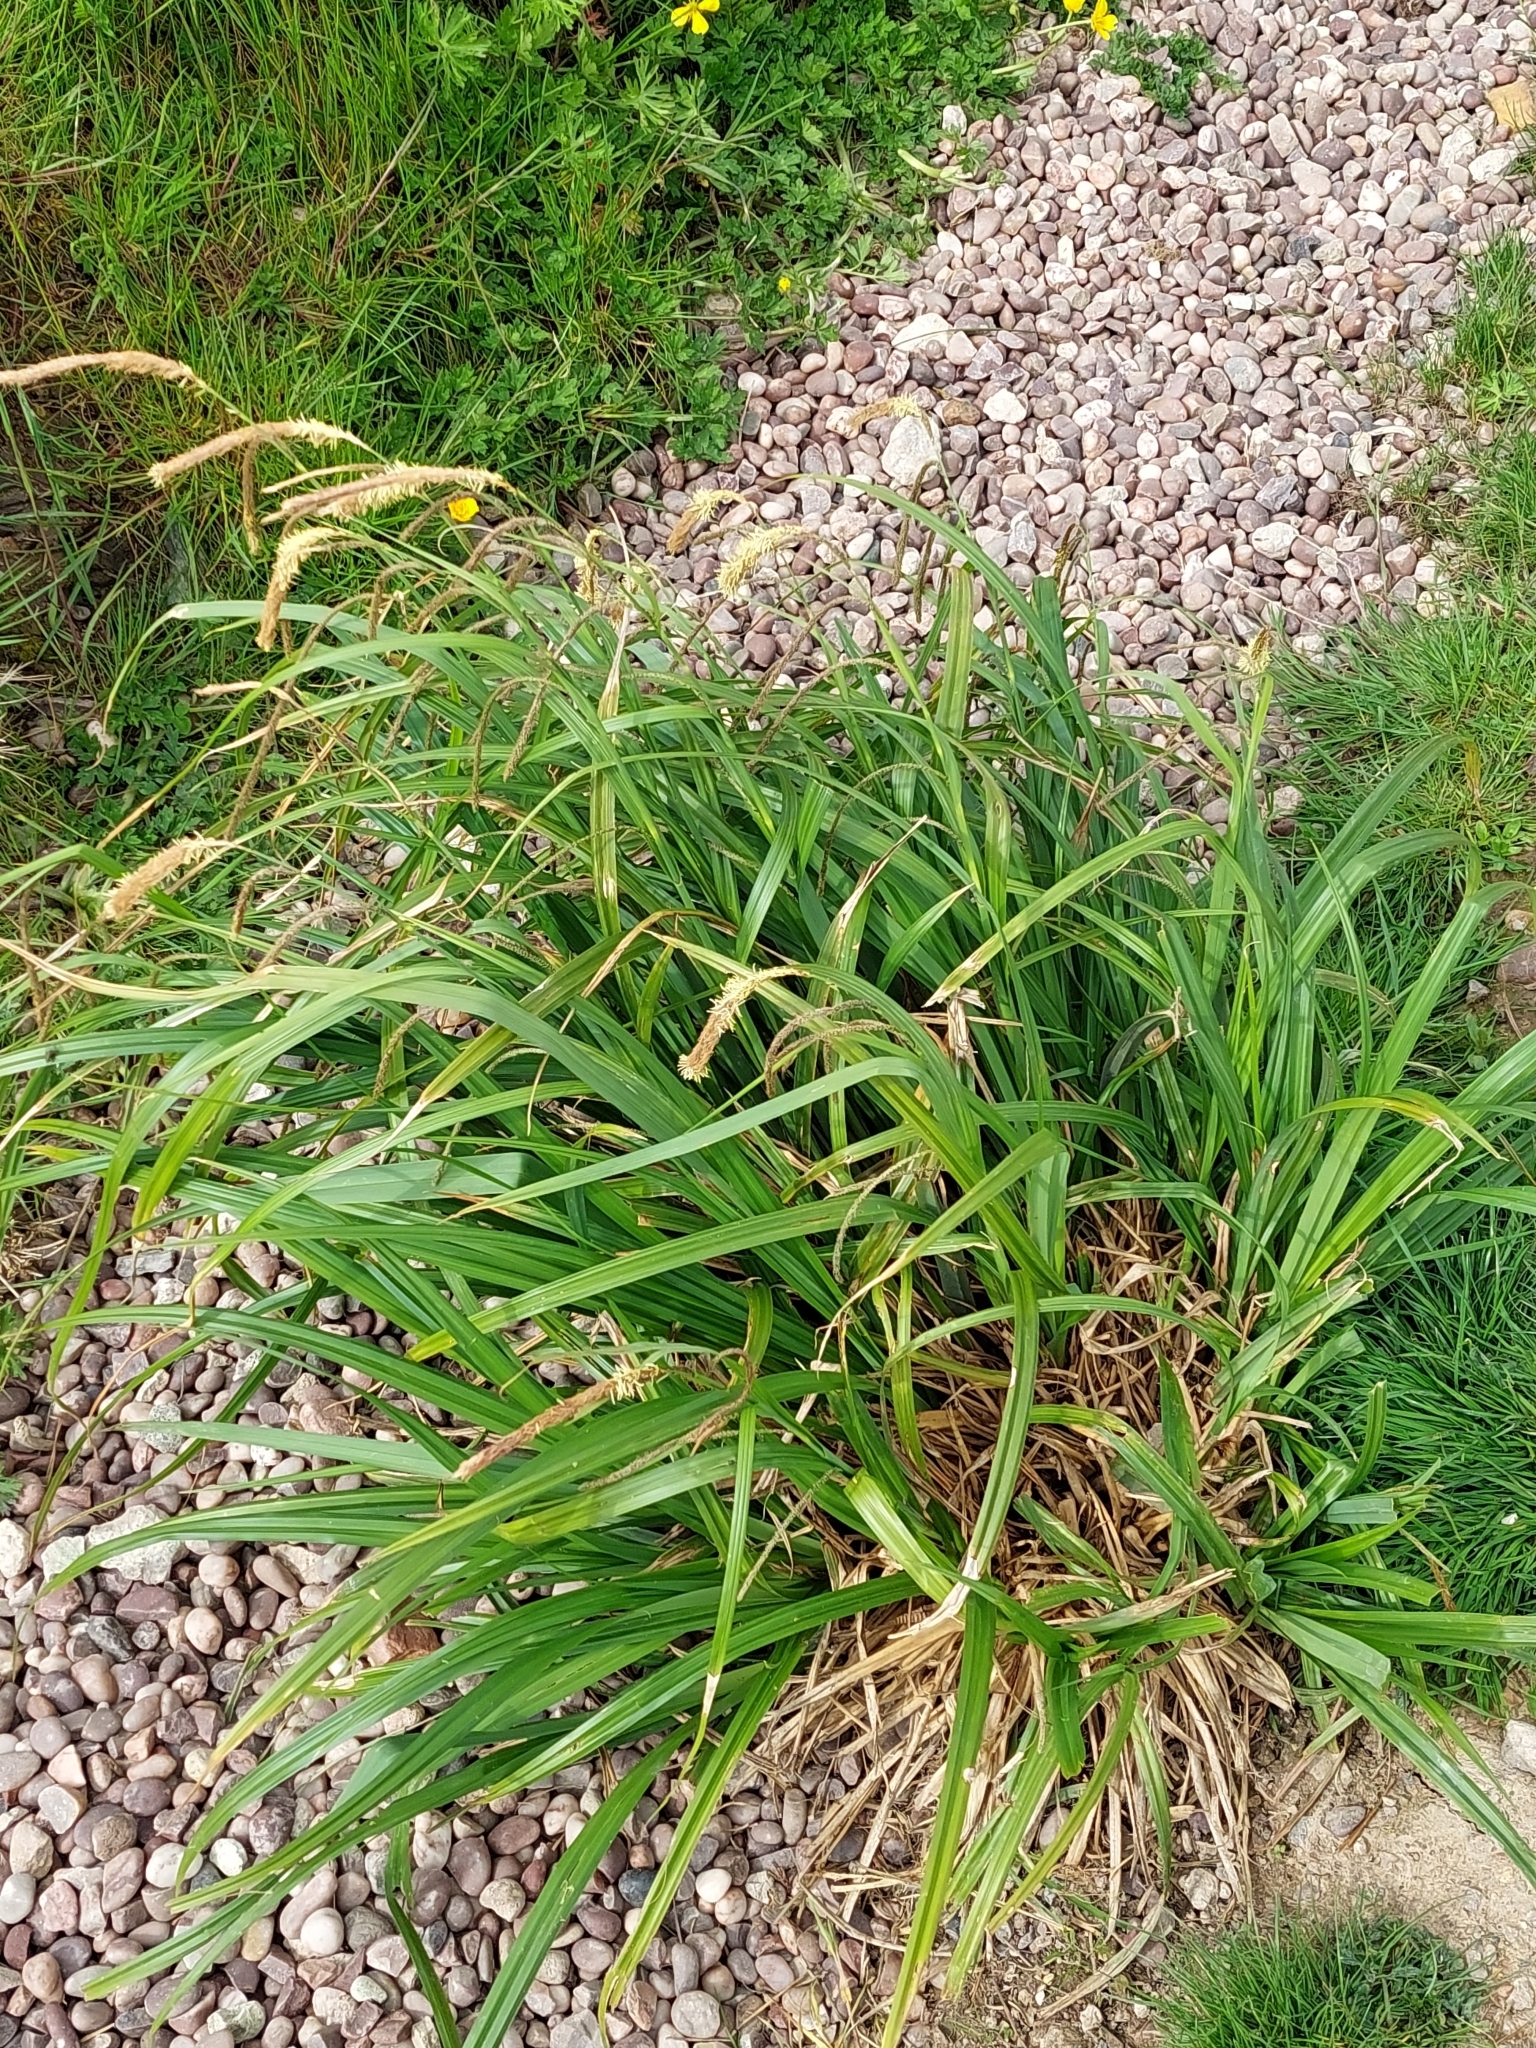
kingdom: Plantae
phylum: Tracheophyta
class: Liliopsida
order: Poales
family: Cyperaceae
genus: Carex
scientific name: Carex pendula
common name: Pendulous sedge
